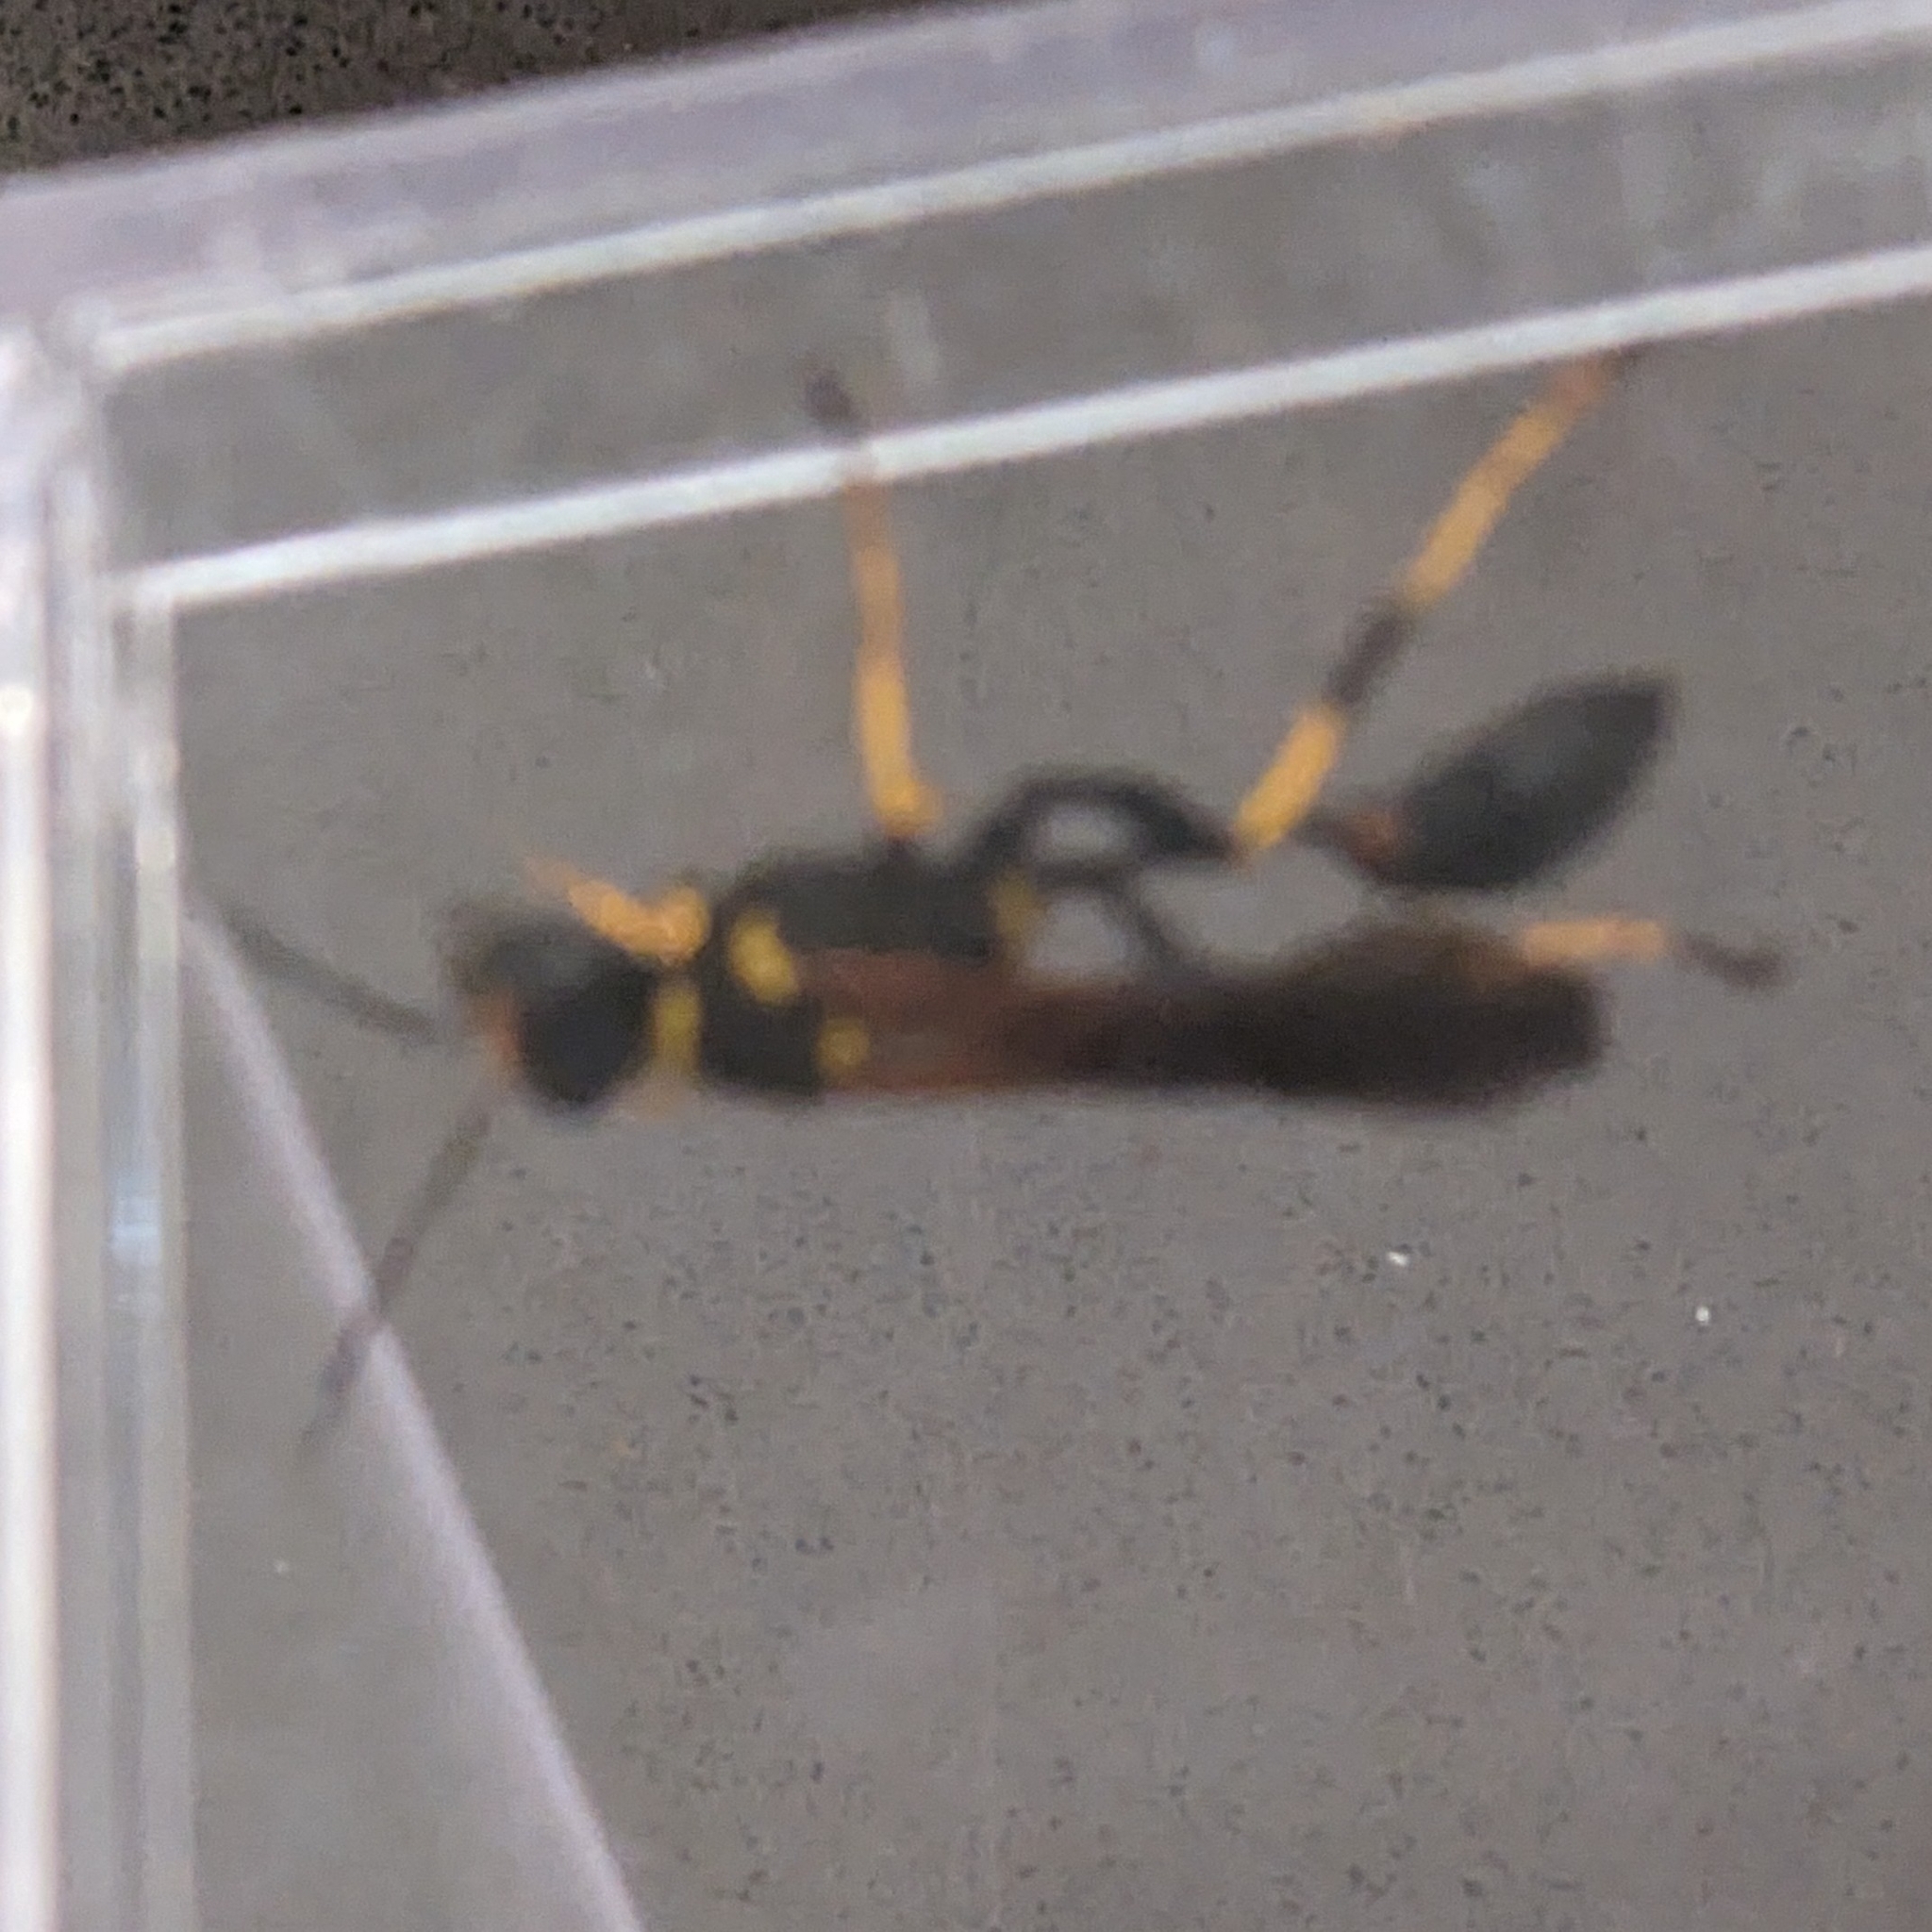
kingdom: Animalia
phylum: Arthropoda
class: Insecta
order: Hymenoptera
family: Sphecidae
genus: Sceliphron
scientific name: Sceliphron caementarium
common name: Mud dauber
